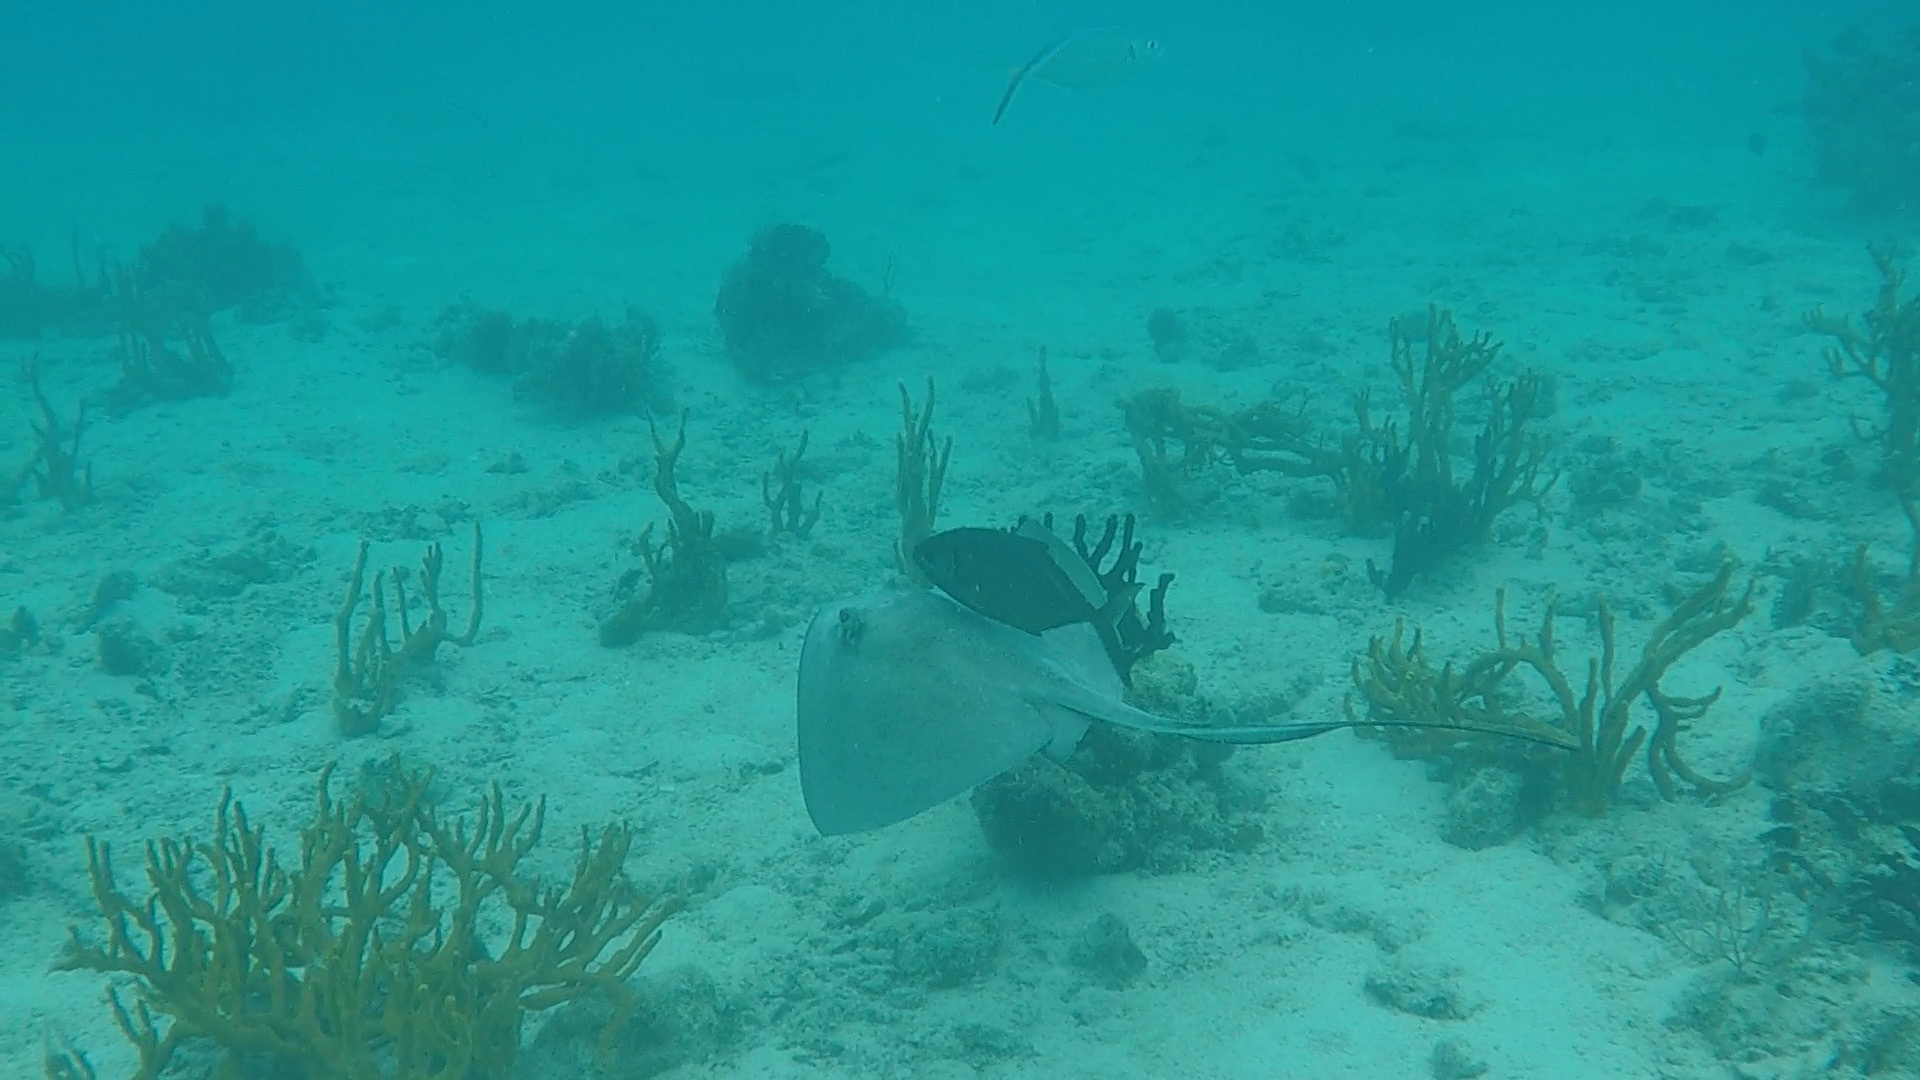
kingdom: Animalia
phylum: Chordata
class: Elasmobranchii
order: Myliobatiformes
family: Dasyatidae
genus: Hypanus
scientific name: Hypanus americanus
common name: Southern stingray
